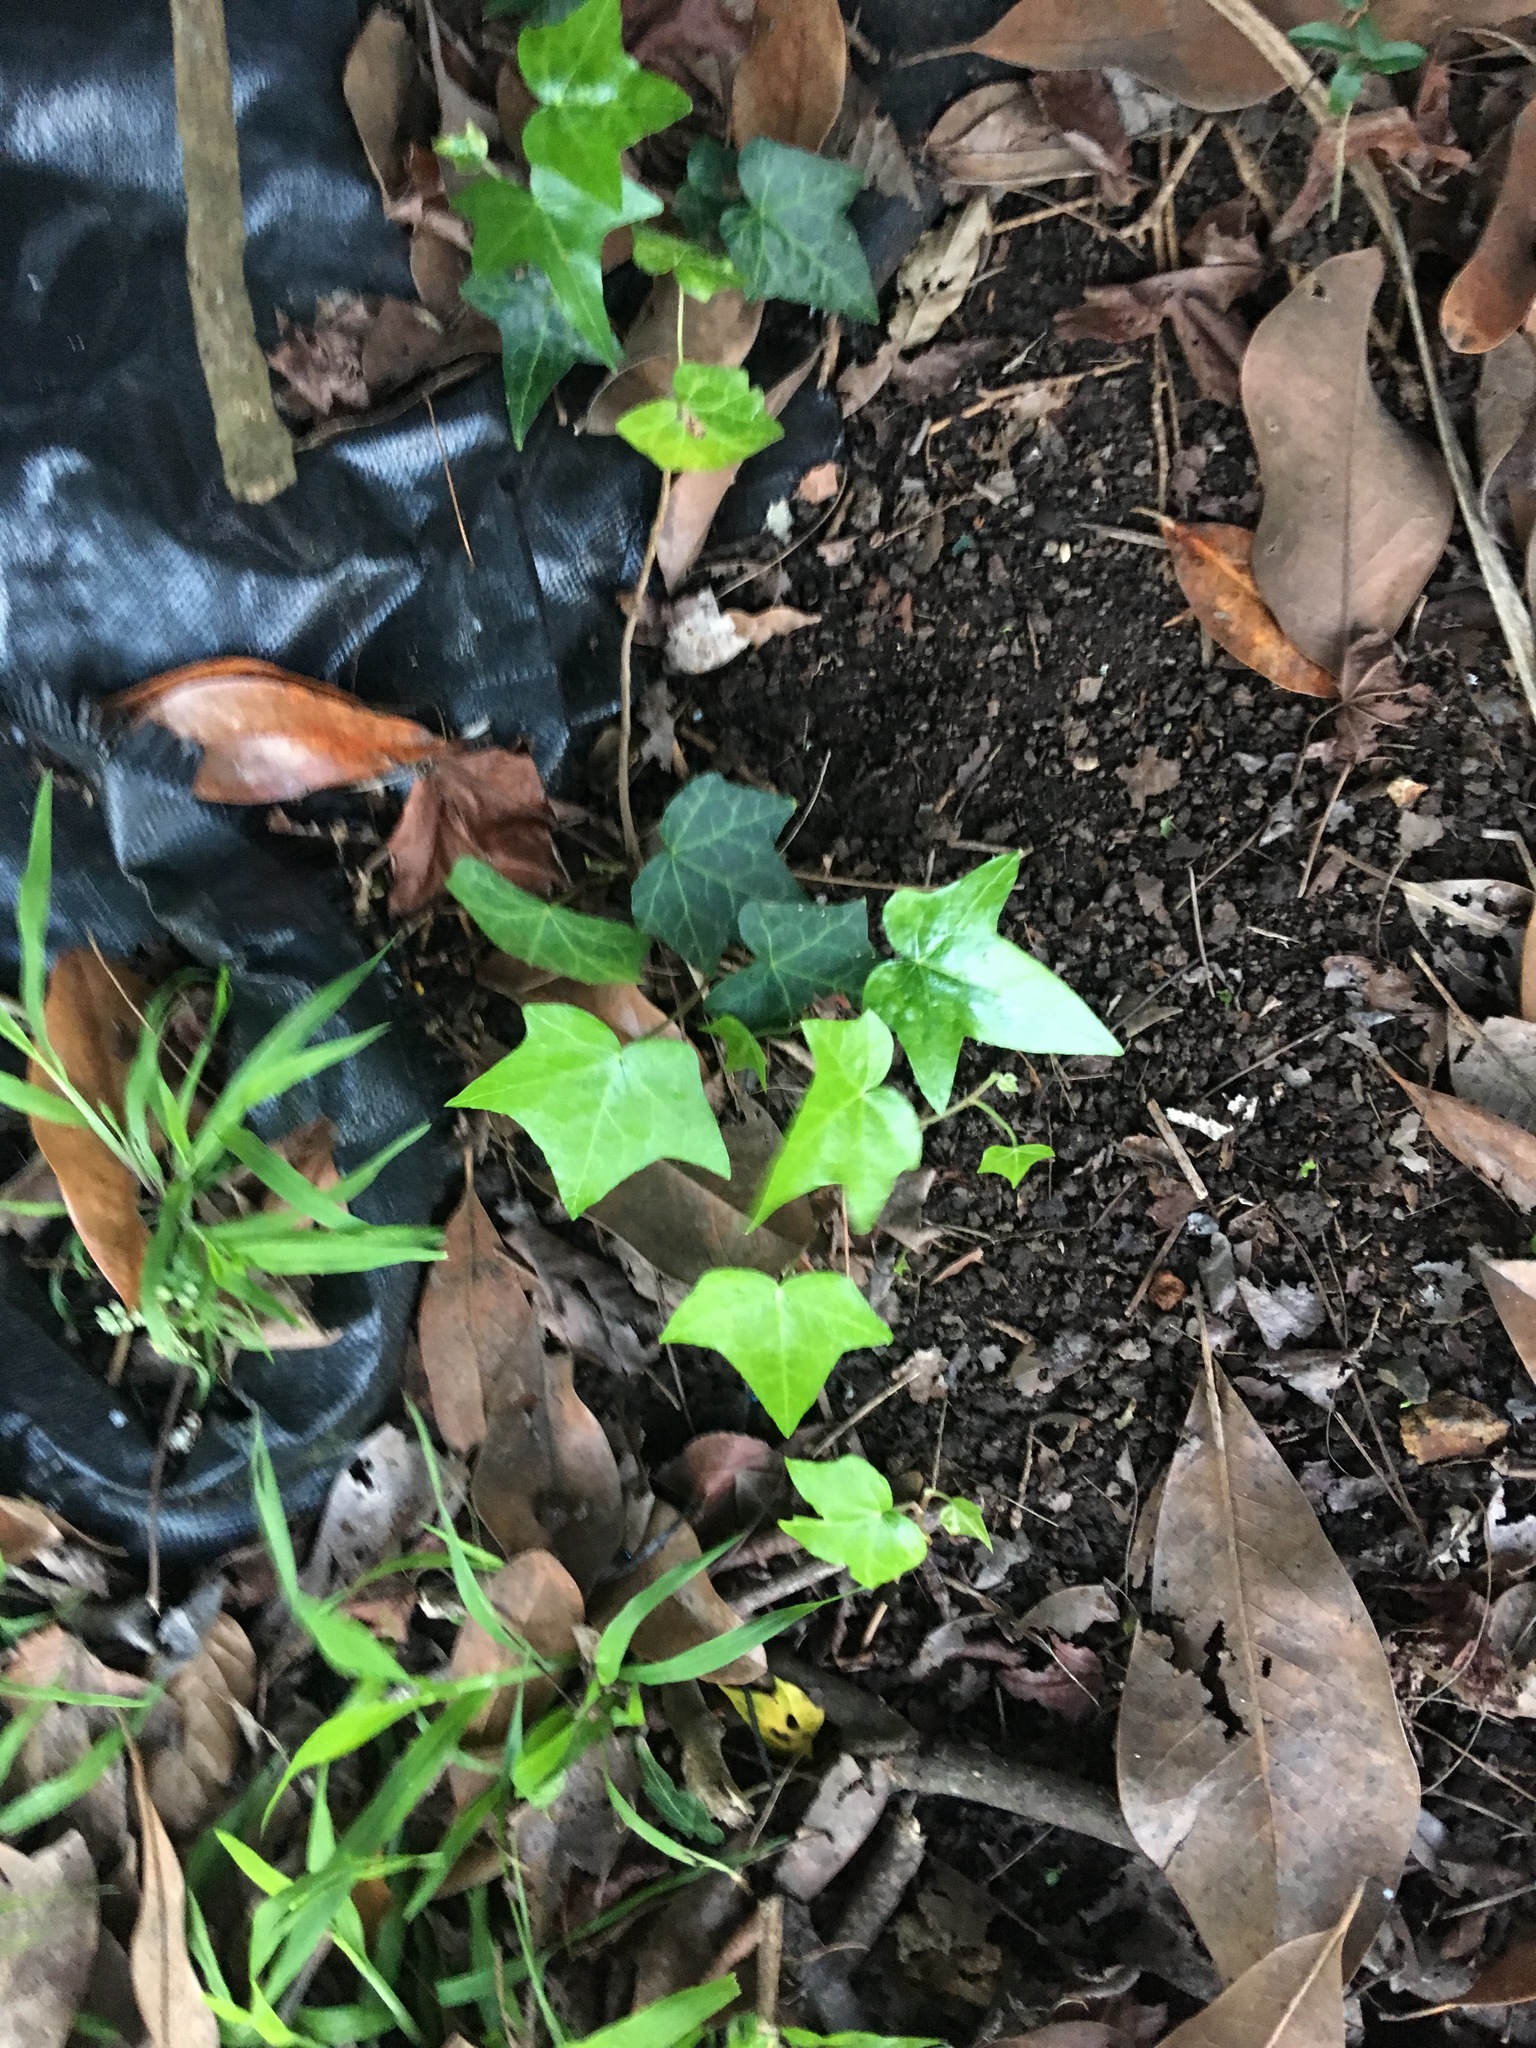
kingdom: Plantae
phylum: Tracheophyta
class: Magnoliopsida
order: Apiales
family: Araliaceae
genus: Hedera
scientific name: Hedera helix
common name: Ivy
